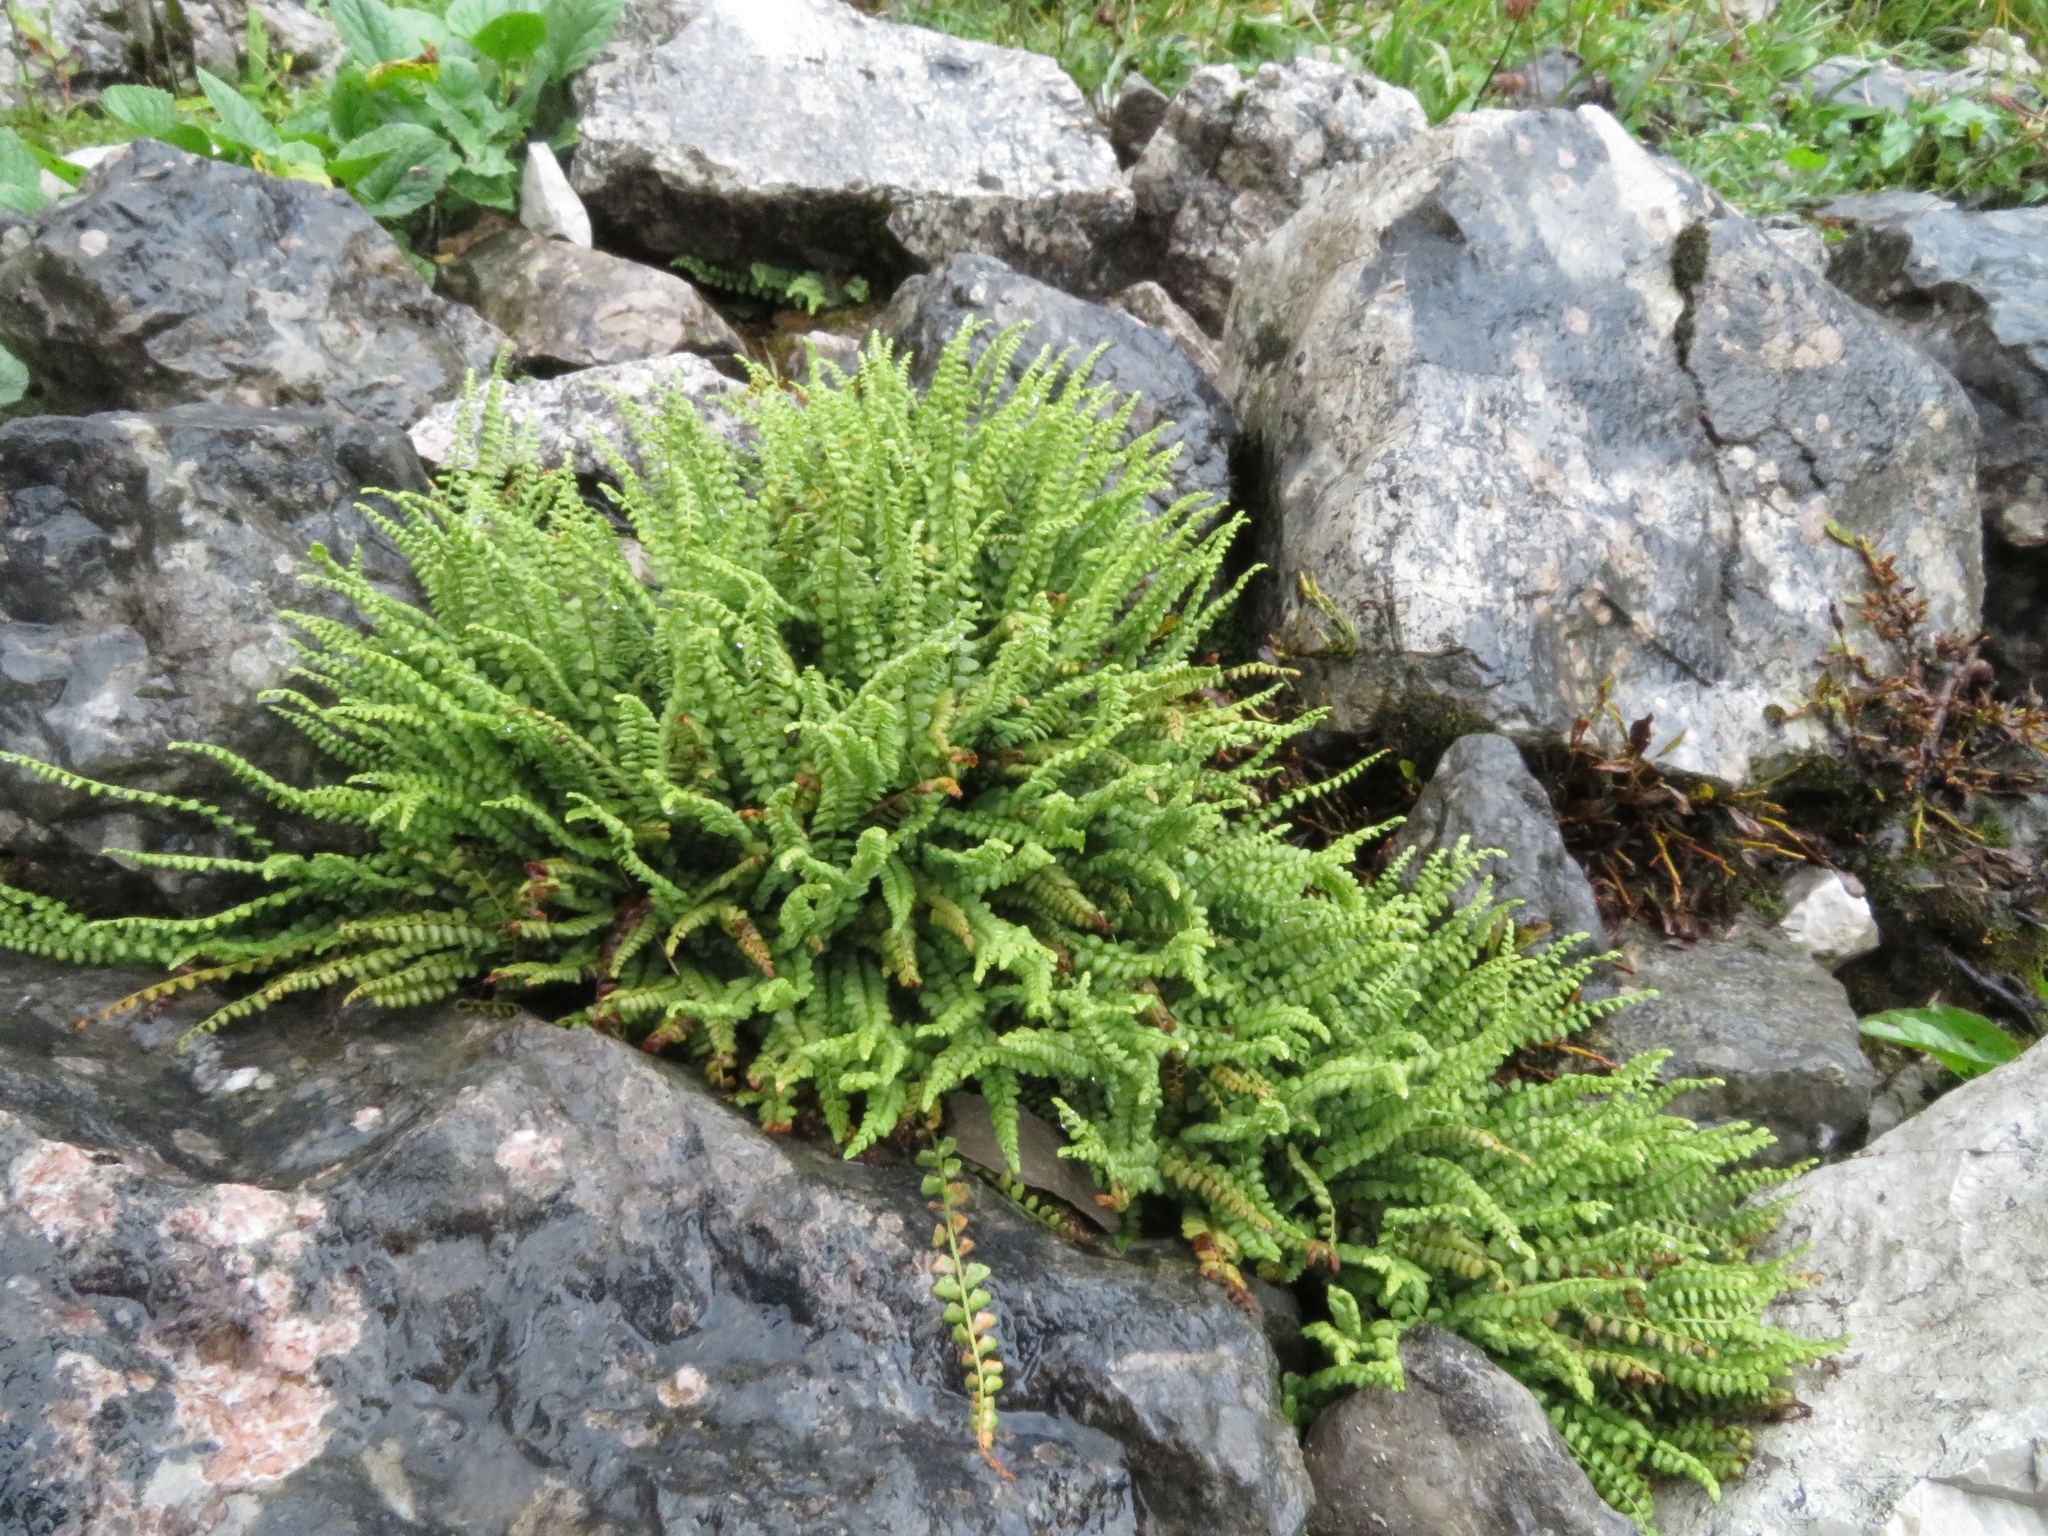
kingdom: Plantae
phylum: Tracheophyta
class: Polypodiopsida
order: Polypodiales
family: Aspleniaceae
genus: Asplenium
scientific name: Asplenium viride
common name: Green spleenwort
